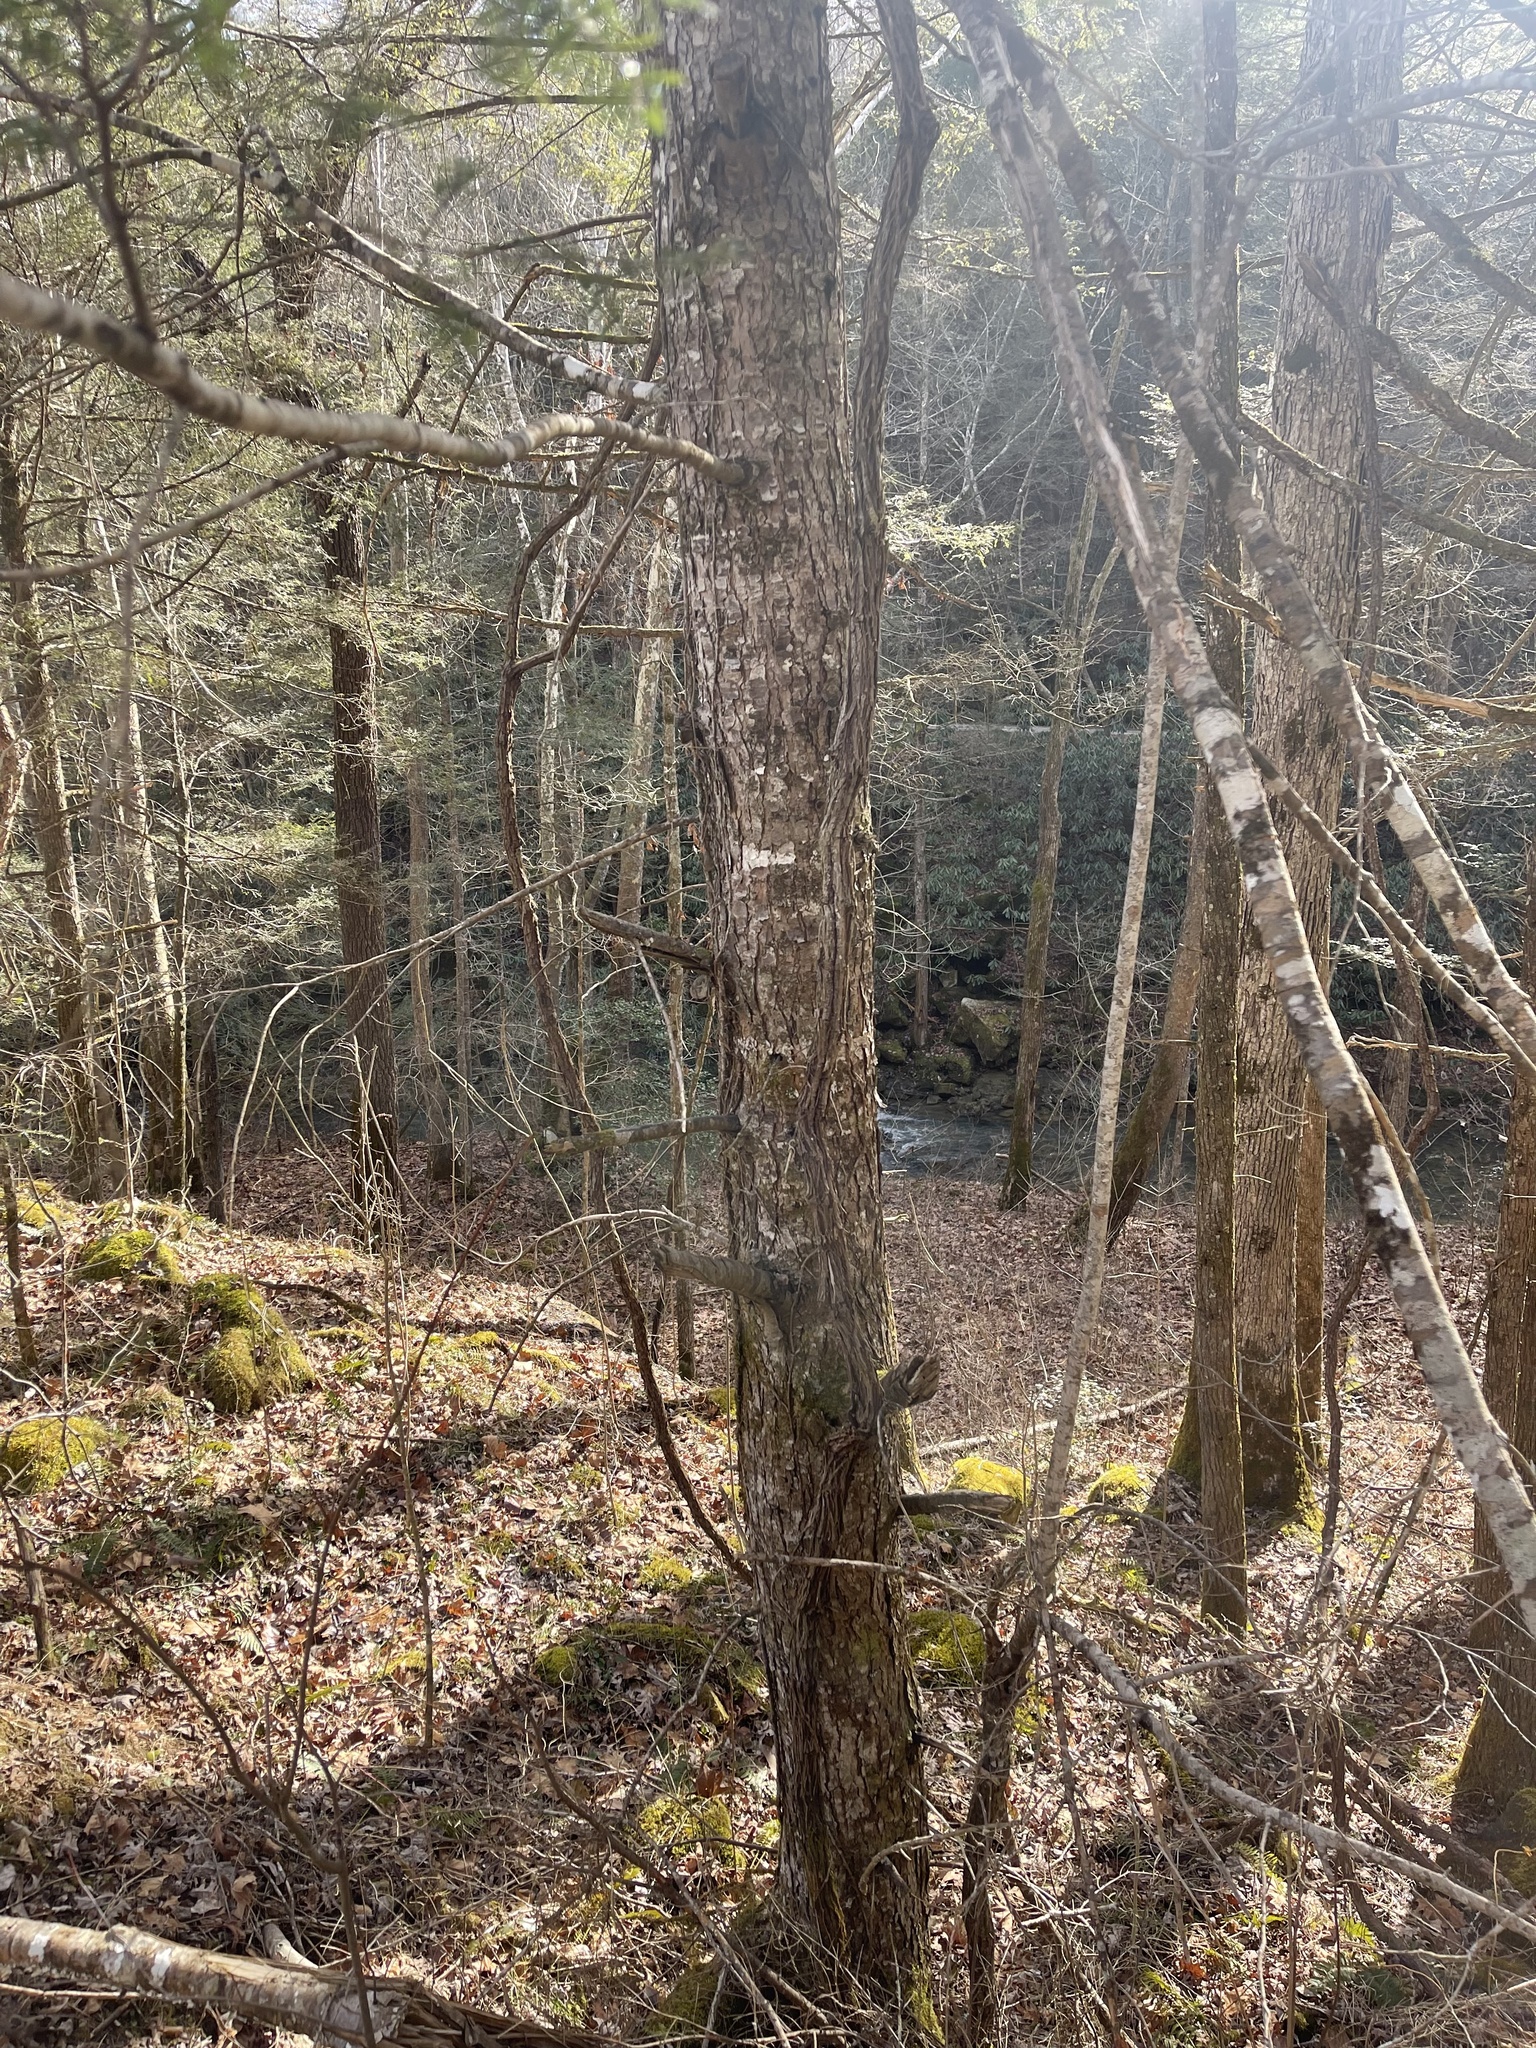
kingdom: Plantae
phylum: Tracheophyta
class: Pinopsida
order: Pinales
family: Pinaceae
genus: Tsuga
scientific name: Tsuga canadensis
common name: Eastern hemlock
